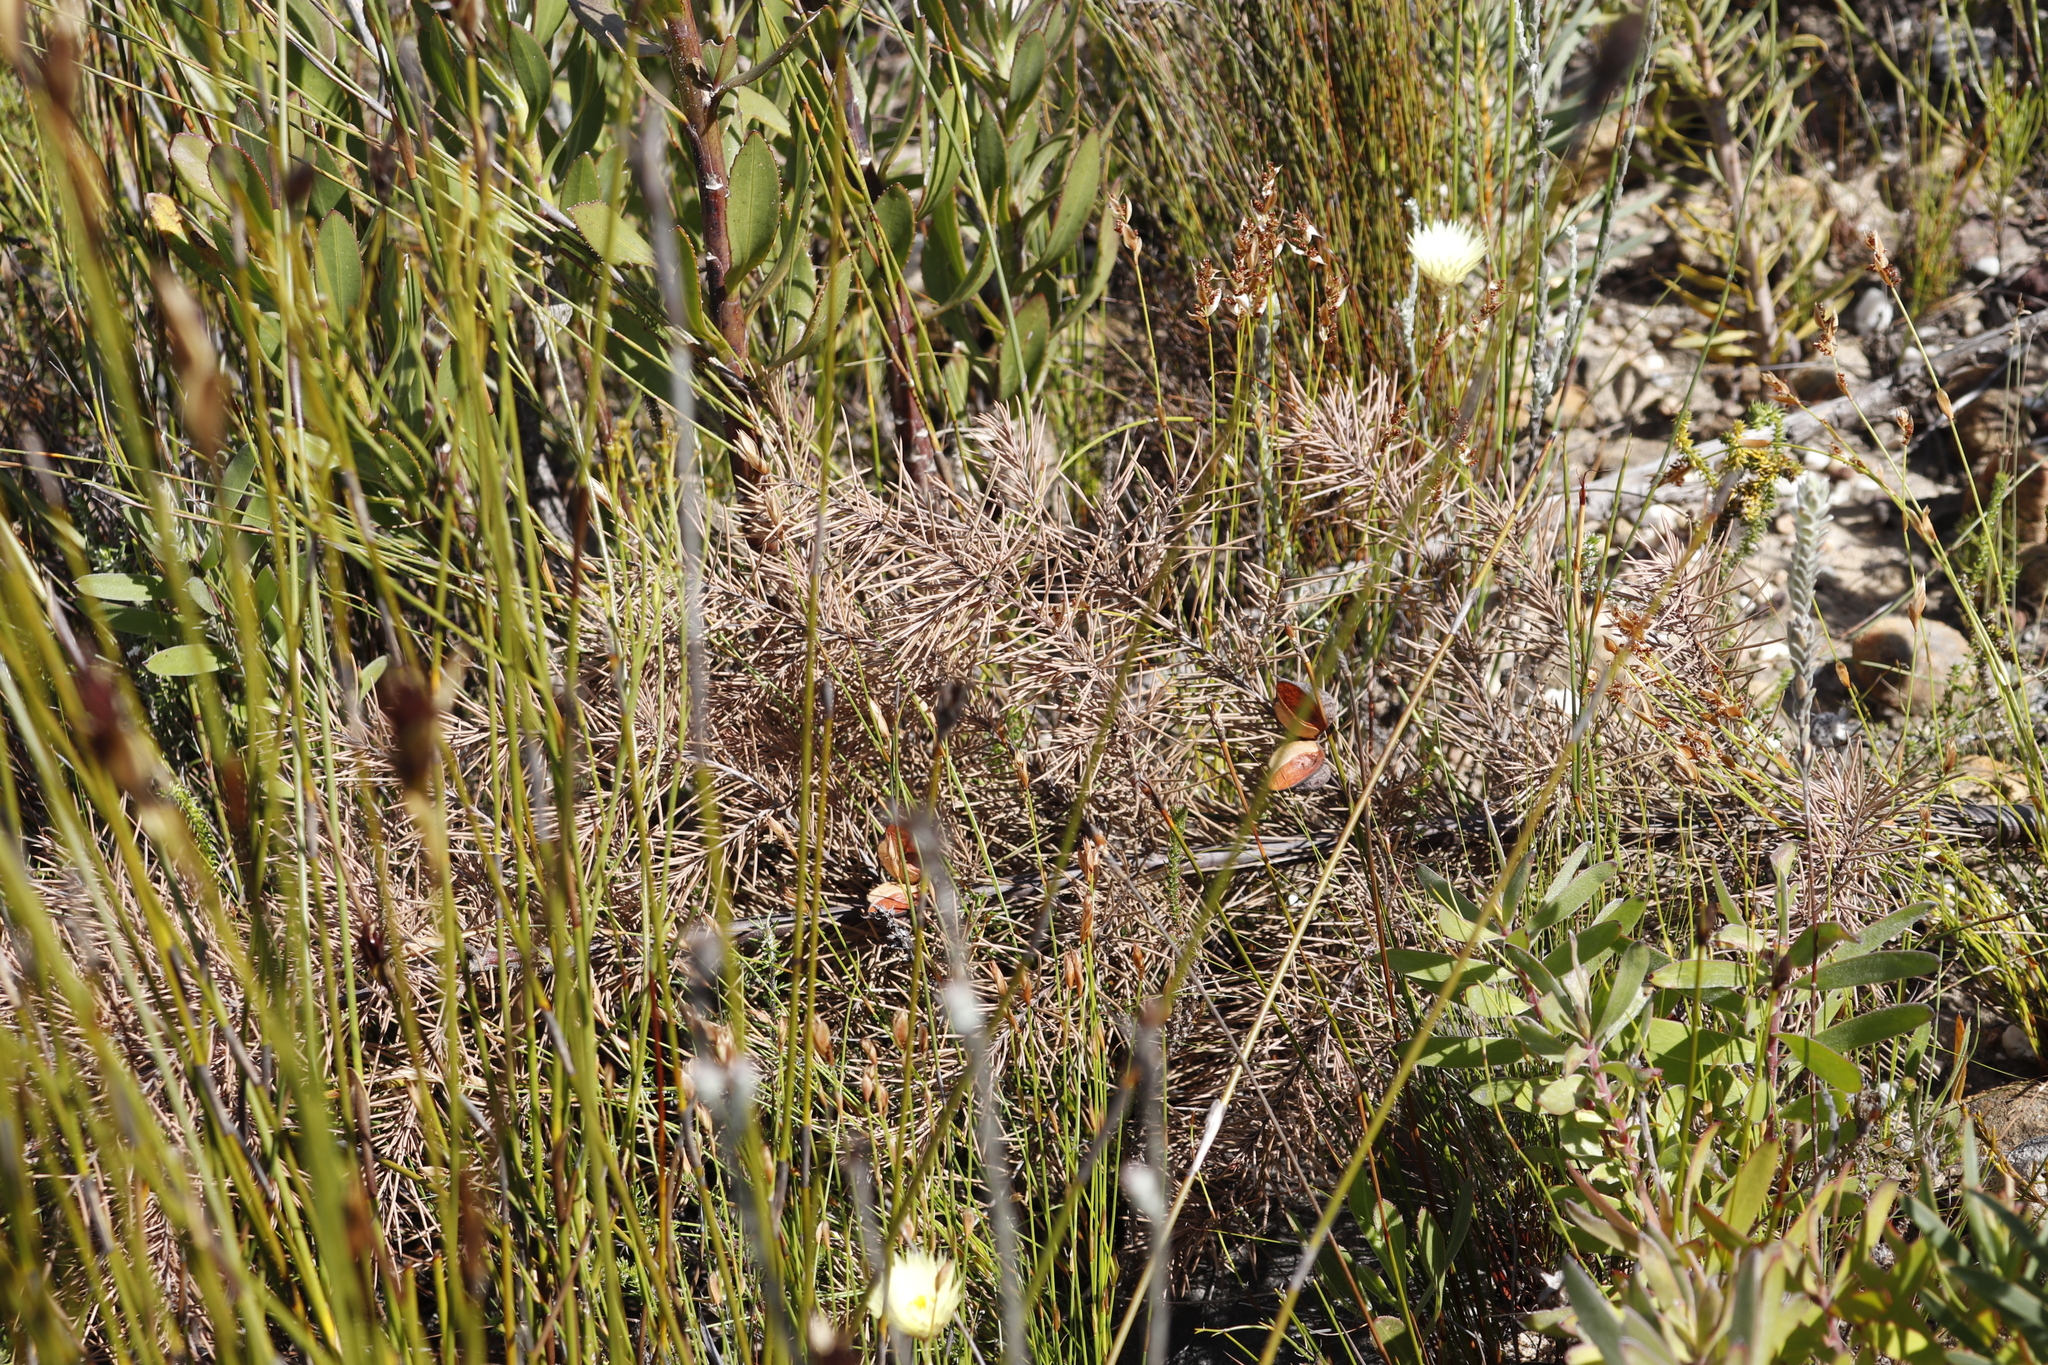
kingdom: Plantae
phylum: Tracheophyta
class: Magnoliopsida
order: Proteales
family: Proteaceae
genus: Hakea
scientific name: Hakea sericea
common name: Needle bush
